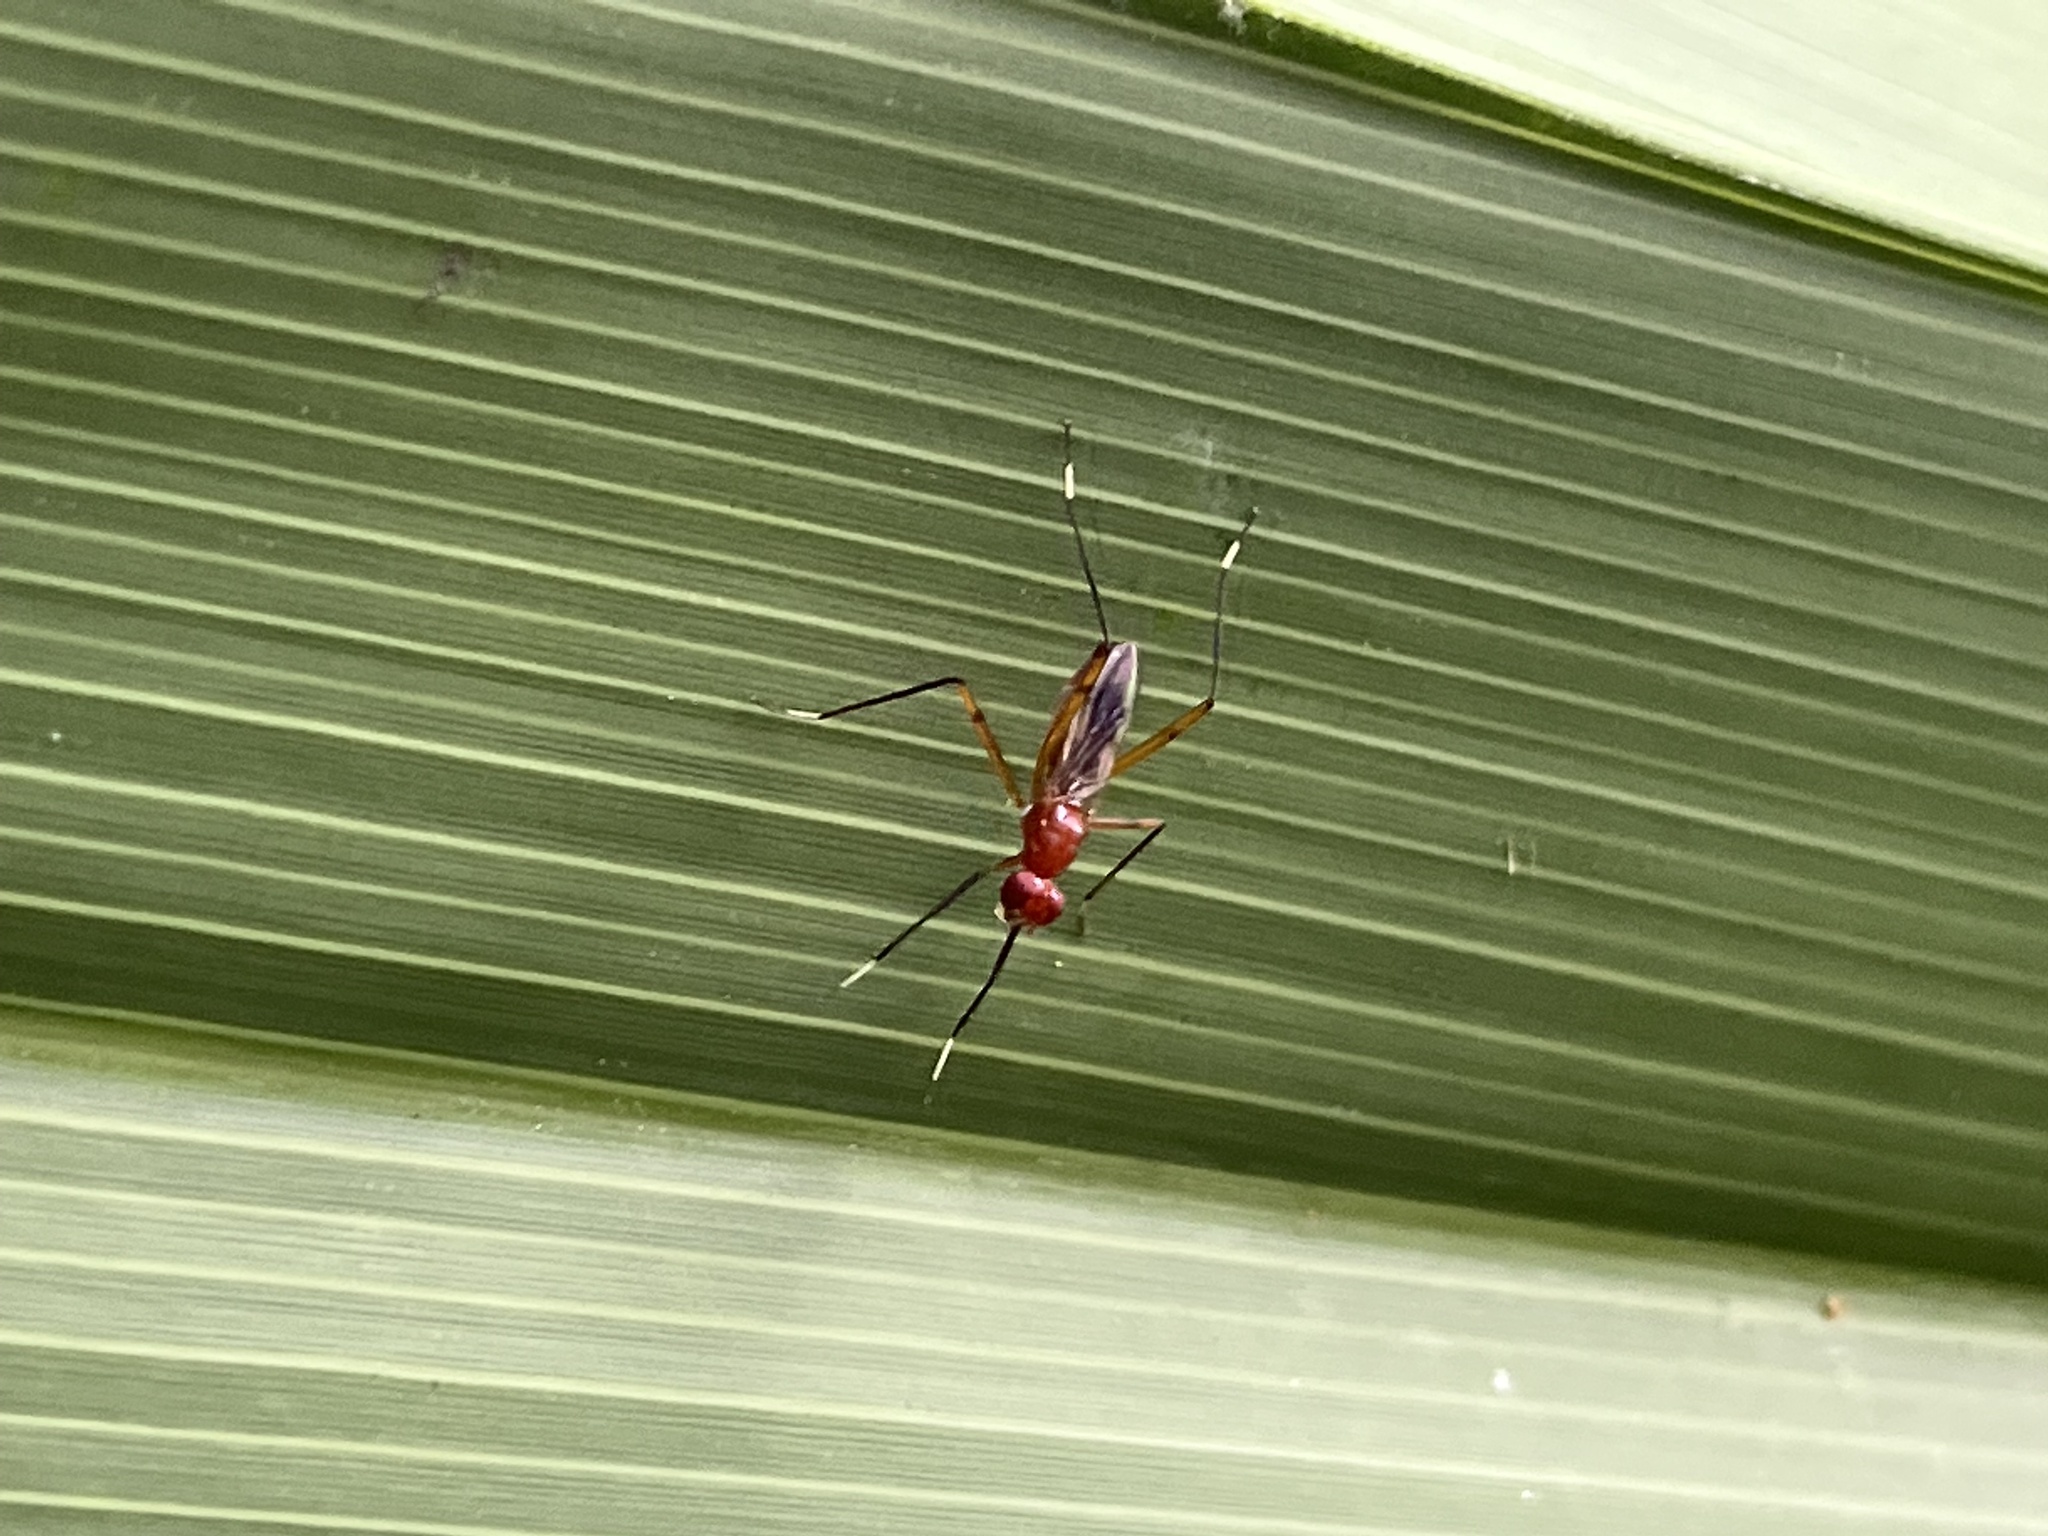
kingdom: Animalia
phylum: Arthropoda
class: Insecta
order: Diptera
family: Micropezidae
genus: Grallipeza
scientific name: Grallipeza nebulosa
